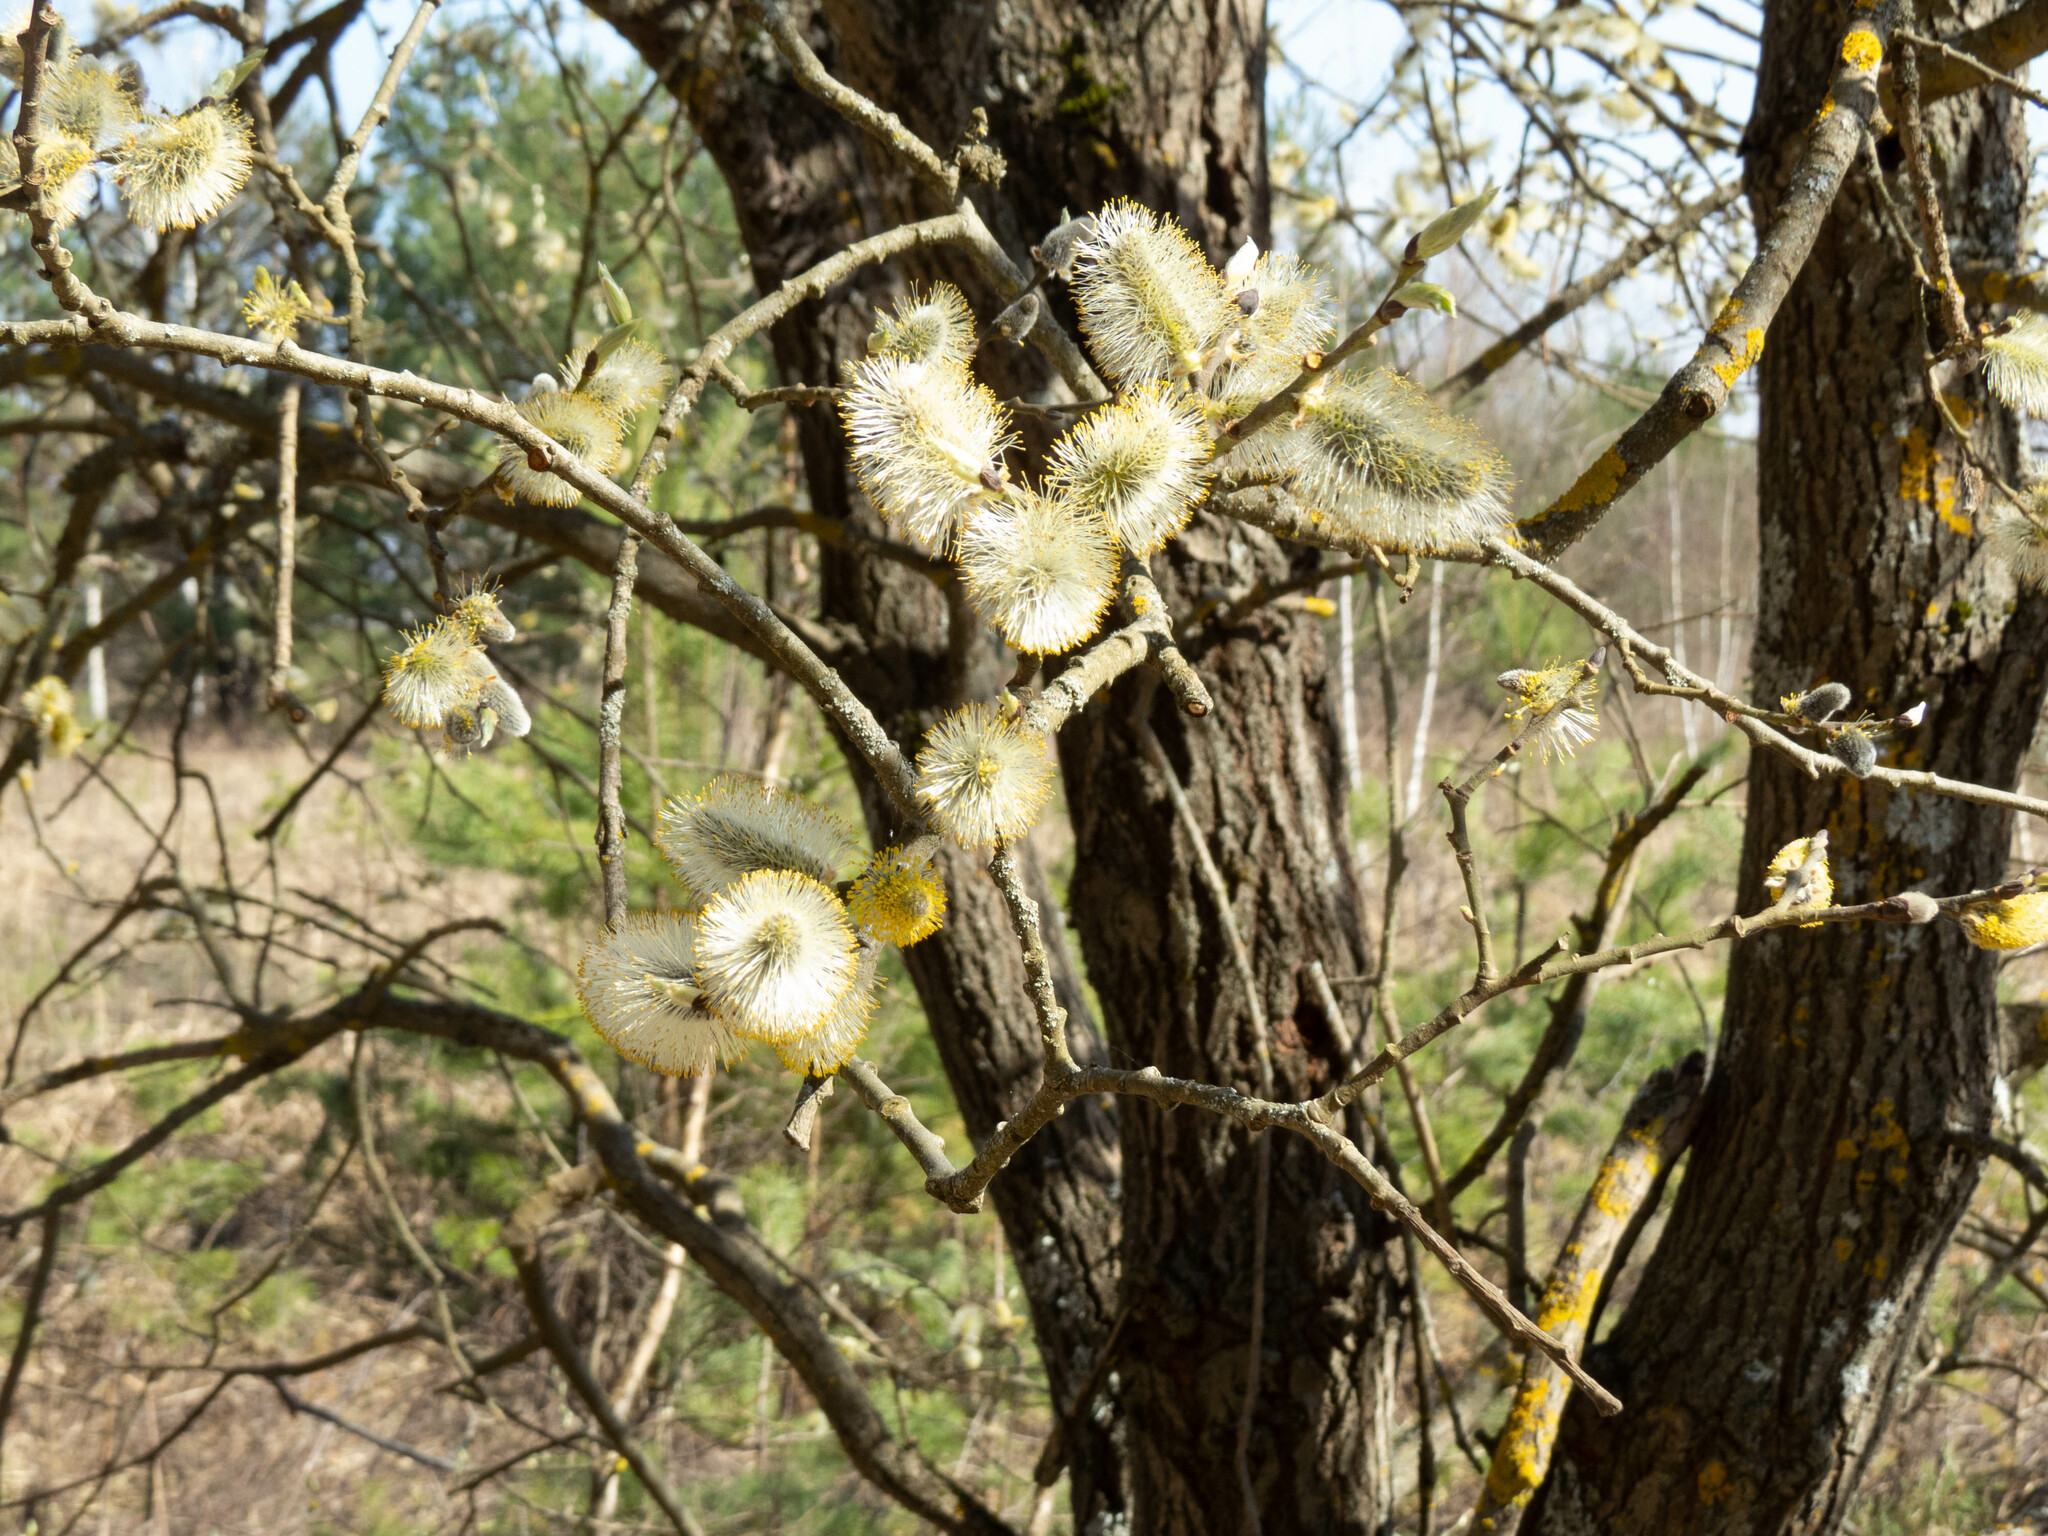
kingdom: Plantae
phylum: Tracheophyta
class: Magnoliopsida
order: Malpighiales
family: Salicaceae
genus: Salix
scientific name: Salix caprea
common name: Goat willow
